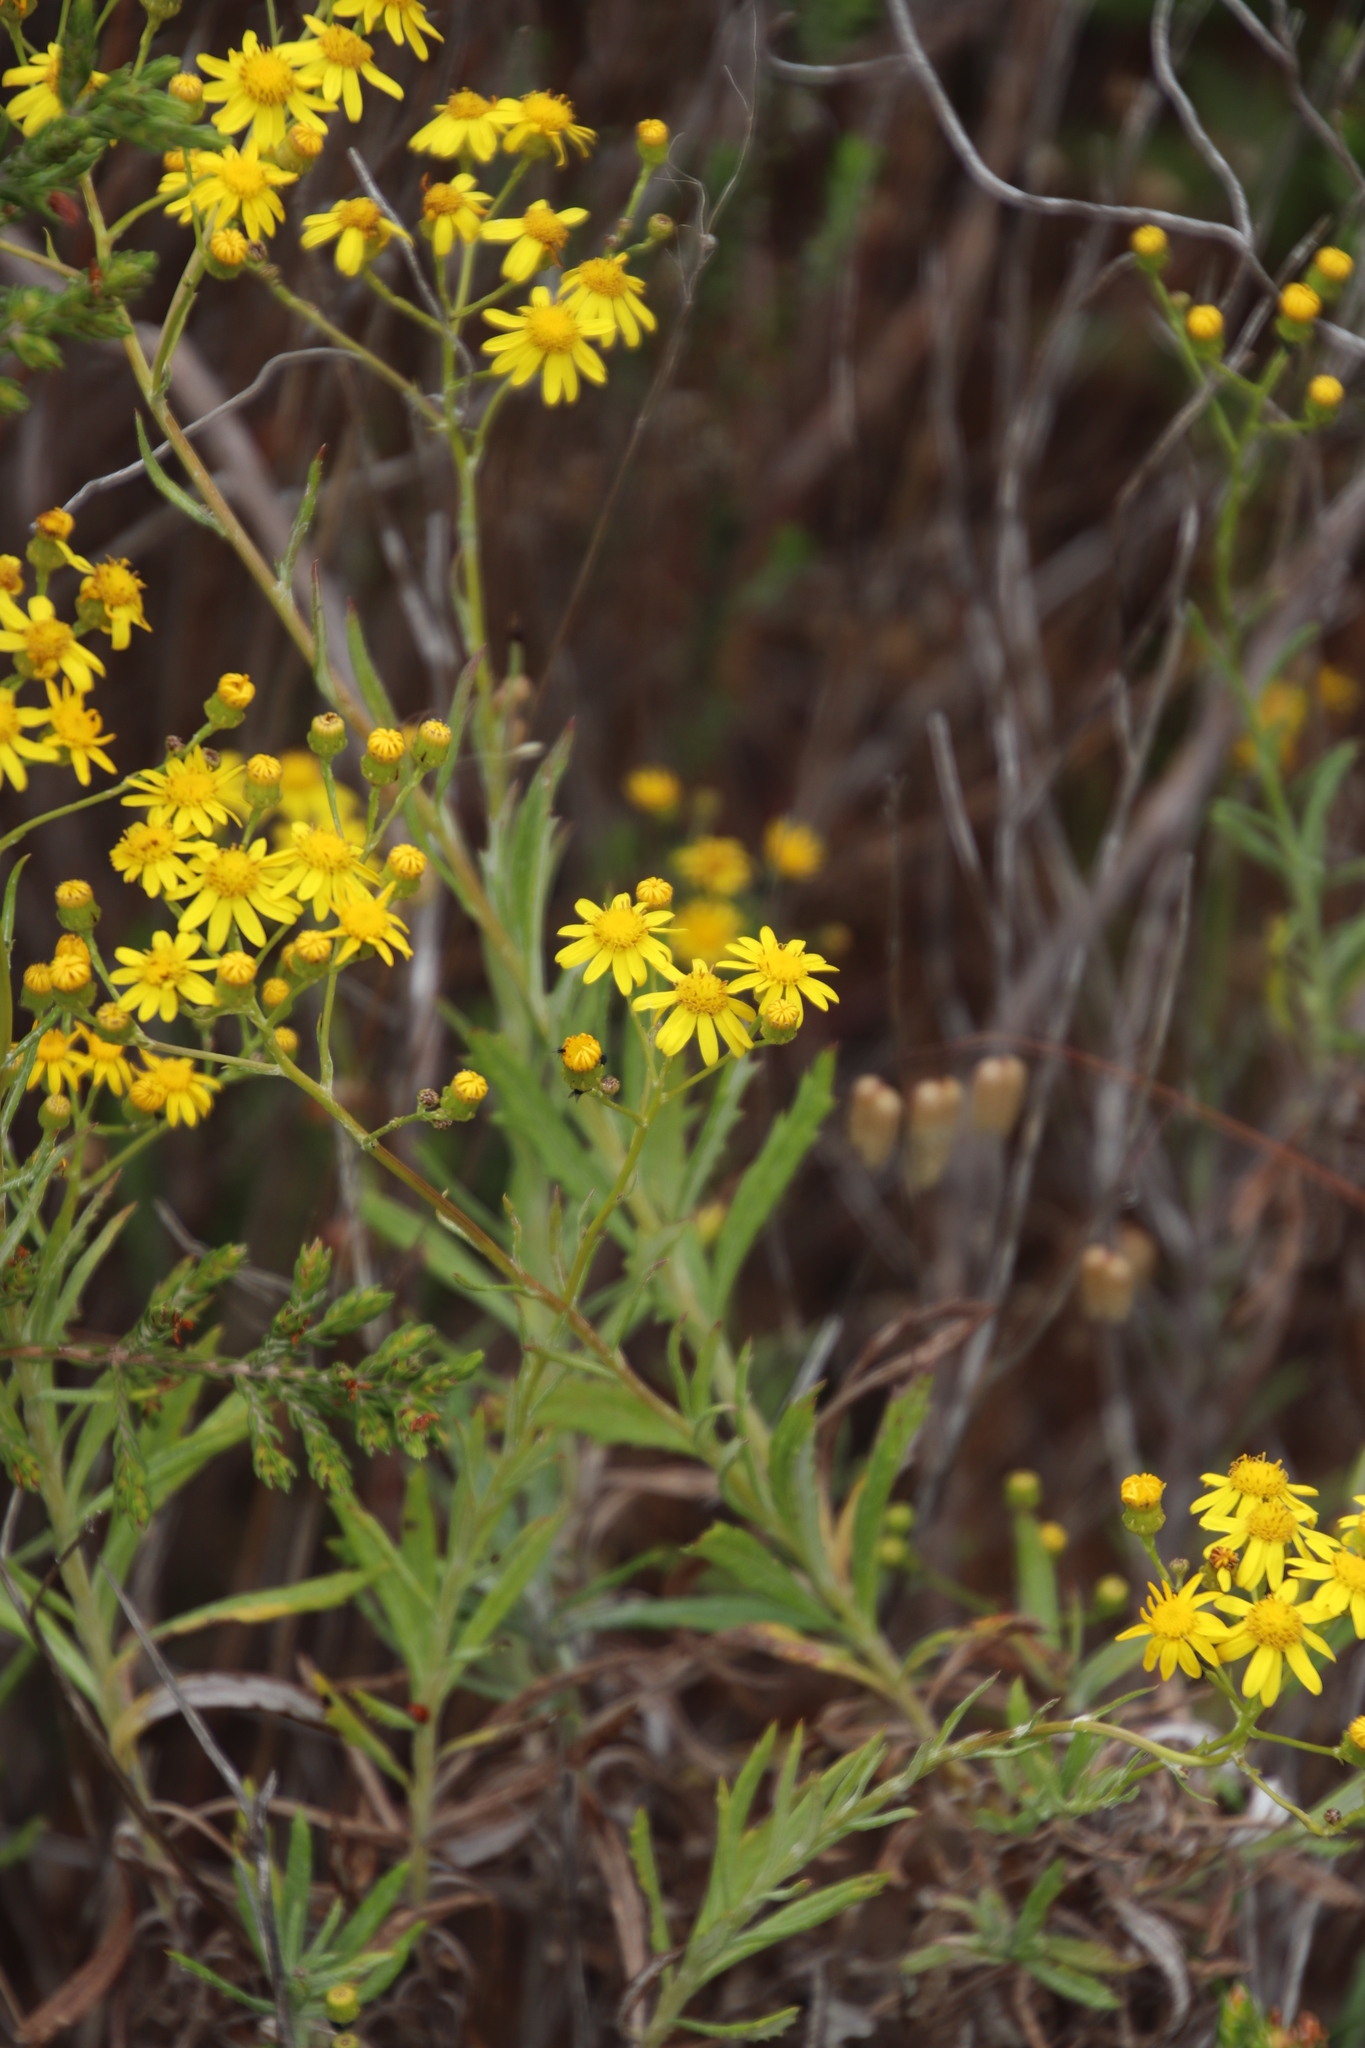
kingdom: Plantae
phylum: Tracheophyta
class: Magnoliopsida
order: Asterales
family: Asteraceae
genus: Senecio
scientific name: Senecio pterophorus
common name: Shoddy ragwort
